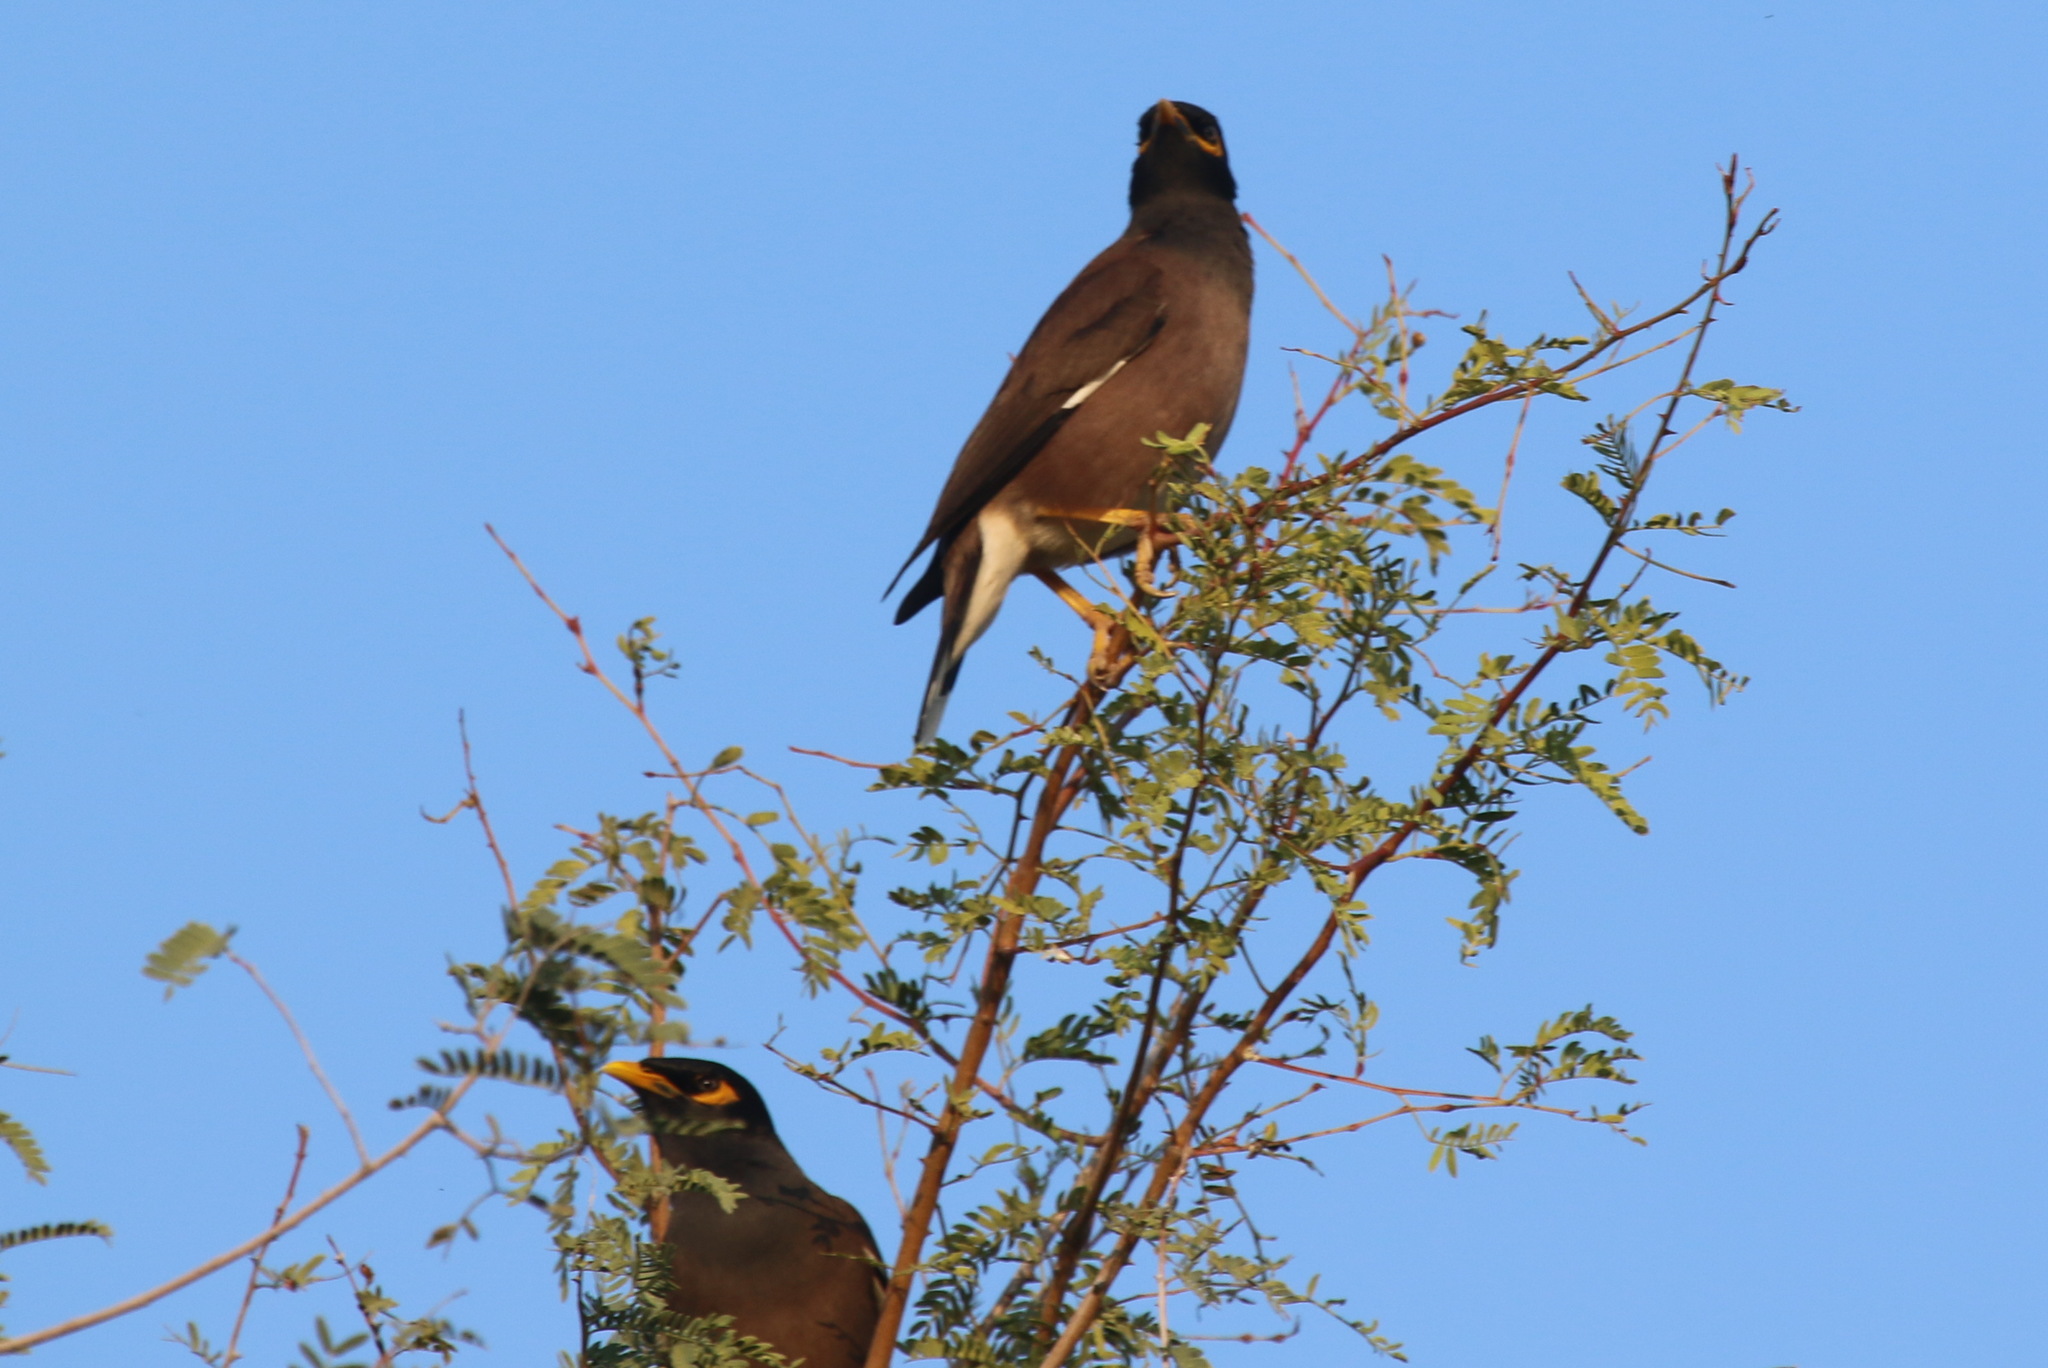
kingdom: Animalia
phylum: Chordata
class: Aves
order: Passeriformes
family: Sturnidae
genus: Acridotheres
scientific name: Acridotheres tristis
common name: Common myna
